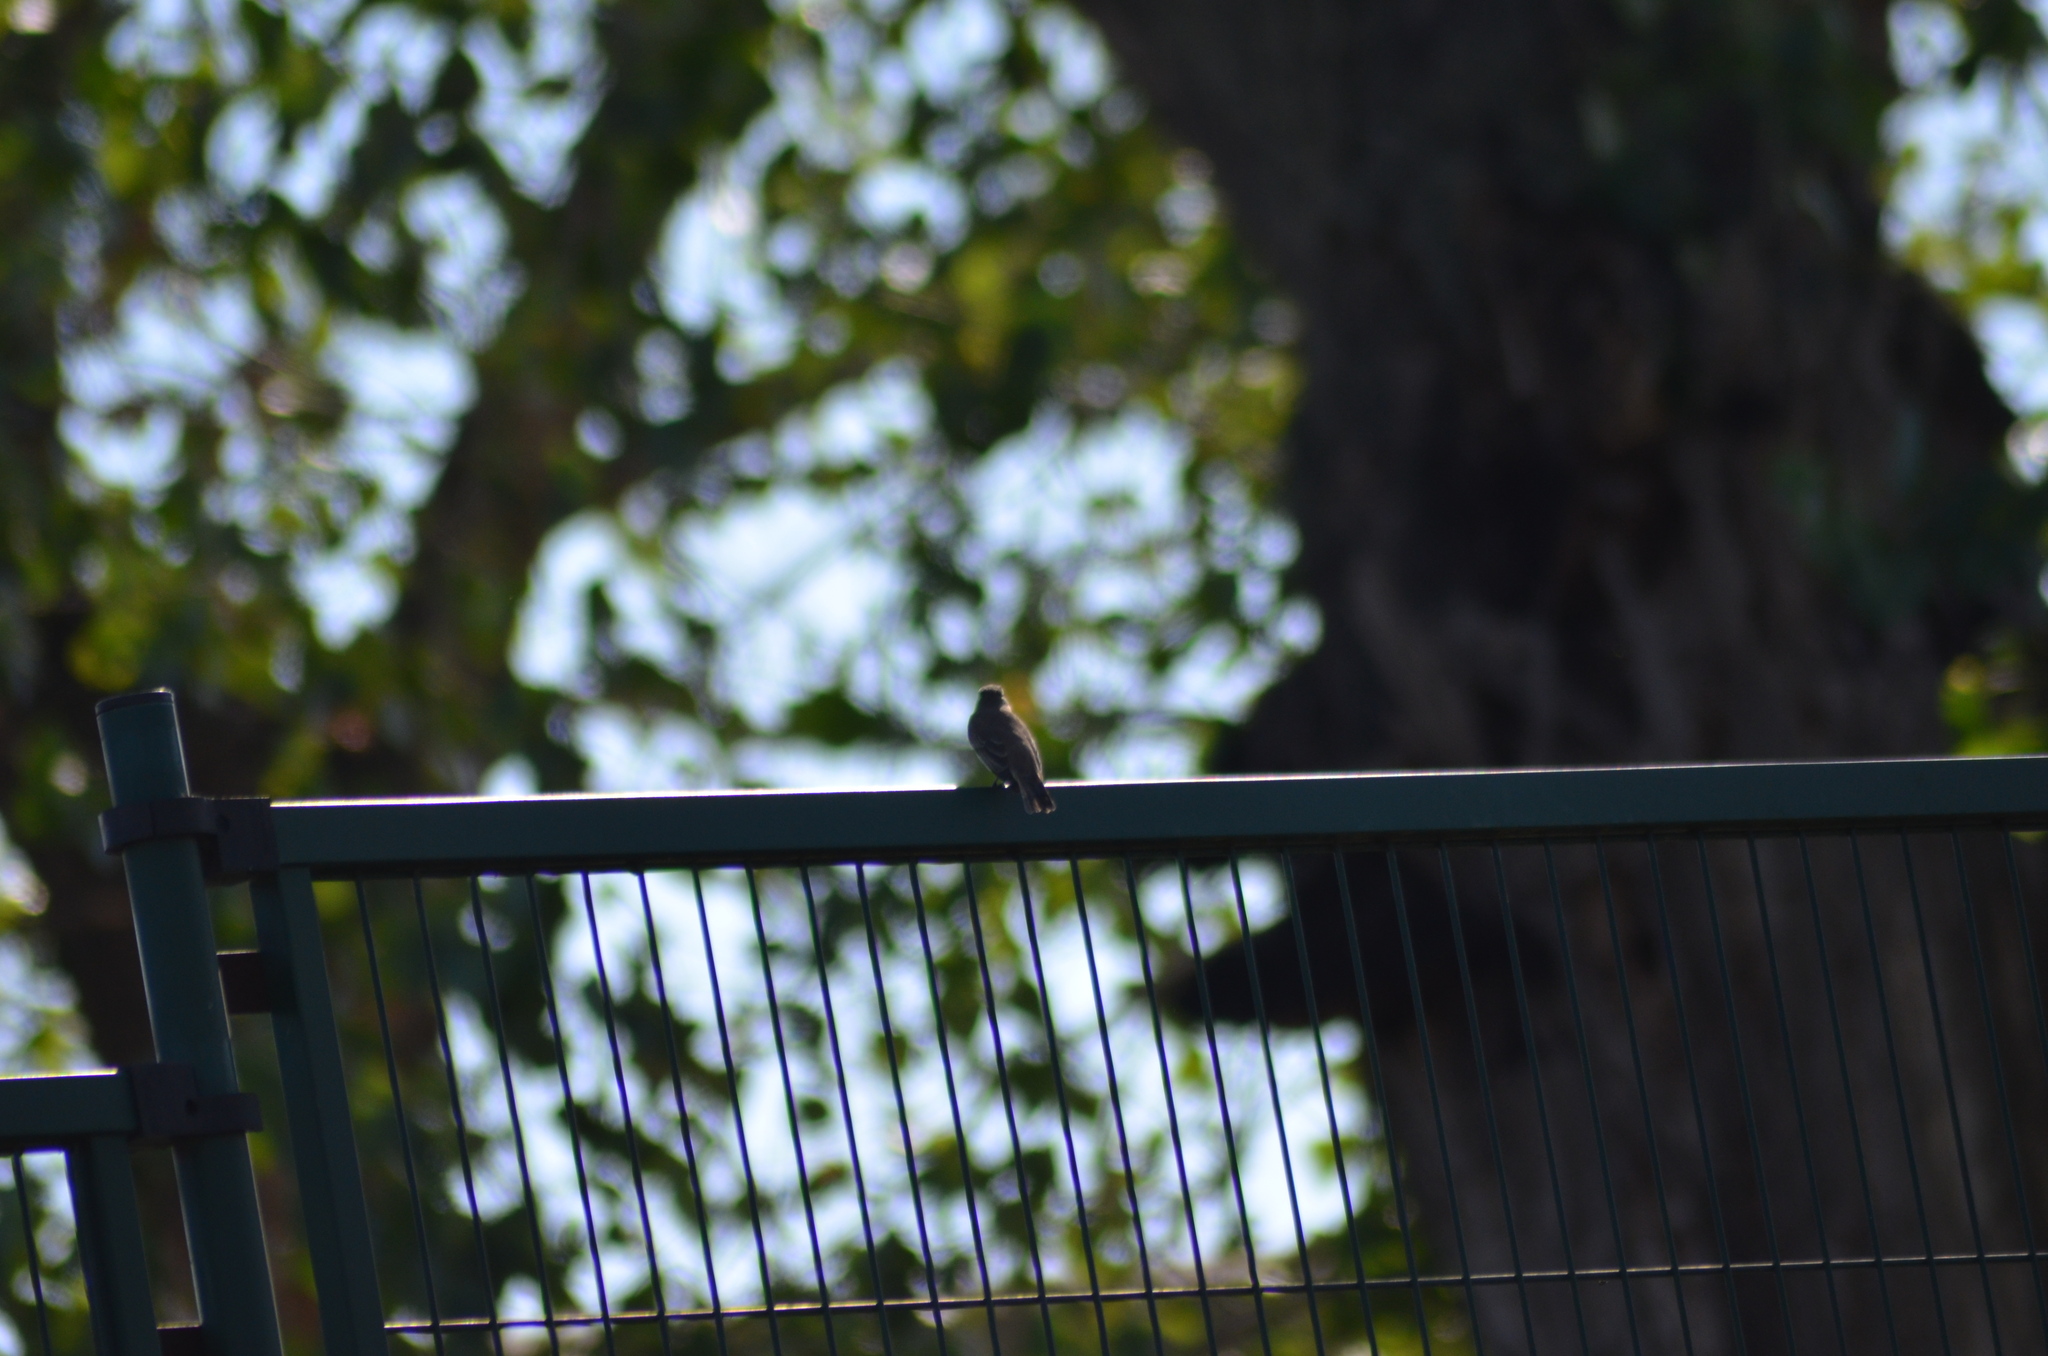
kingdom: Animalia
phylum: Chordata
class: Aves
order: Passeriformes
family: Muscicapidae
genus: Muscicapa
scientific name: Muscicapa striata
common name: Spotted flycatcher
